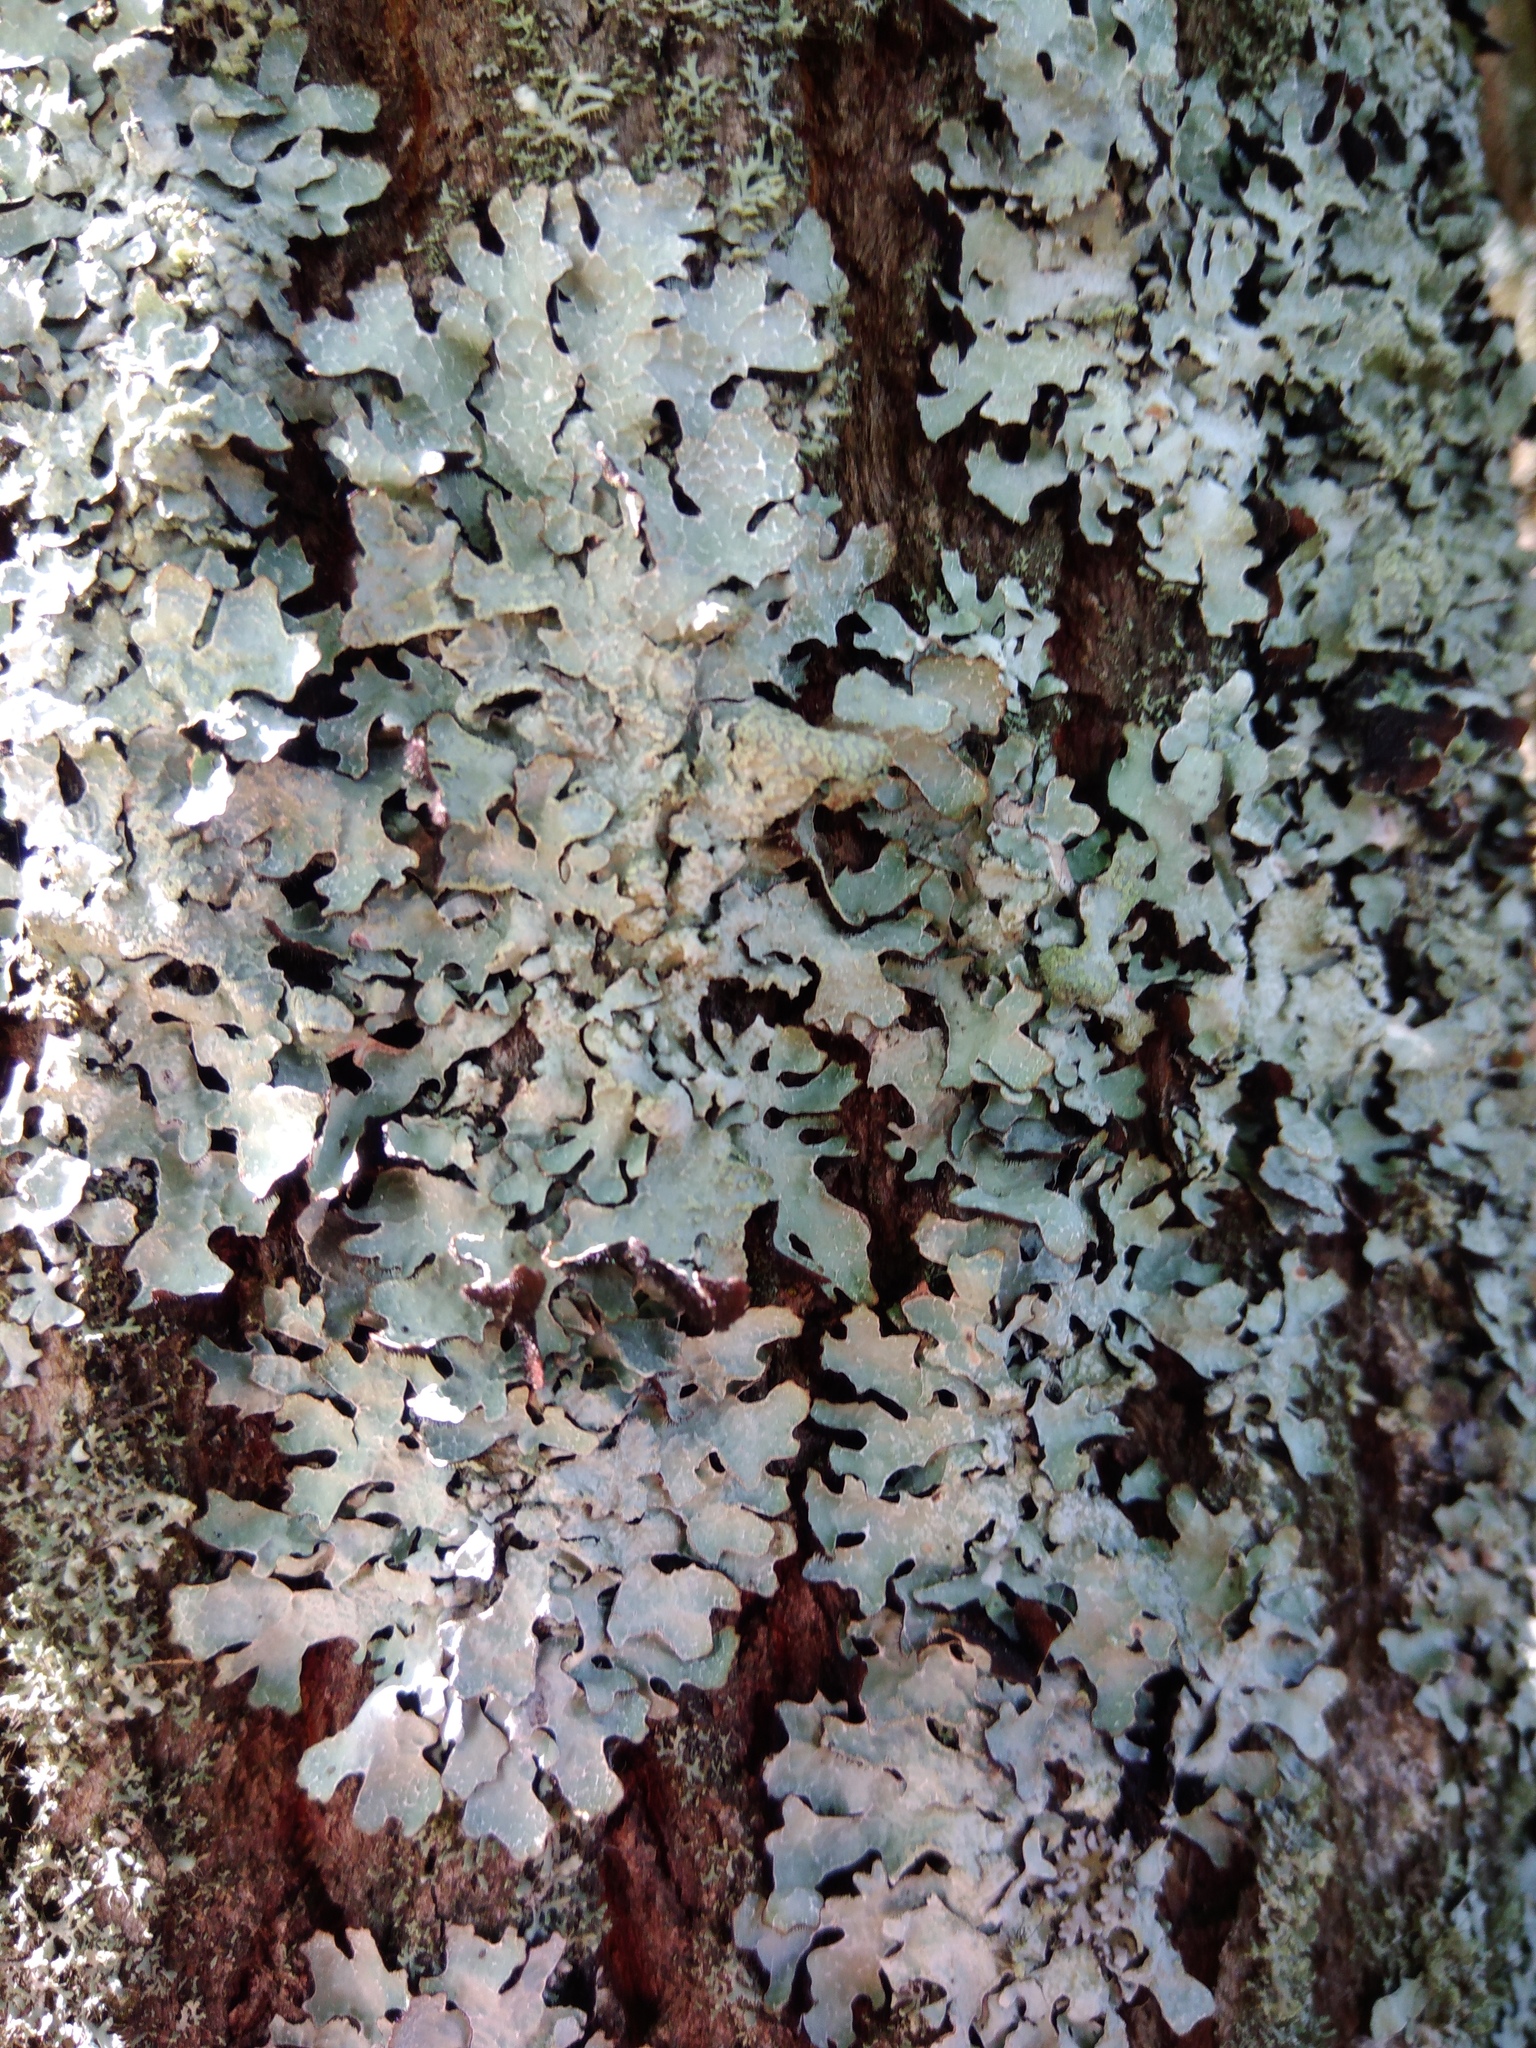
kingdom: Fungi
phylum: Ascomycota
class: Lecanoromycetes
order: Lecanorales
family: Parmeliaceae
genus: Parmelia
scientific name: Parmelia sulcata
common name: Netted shield lichen
